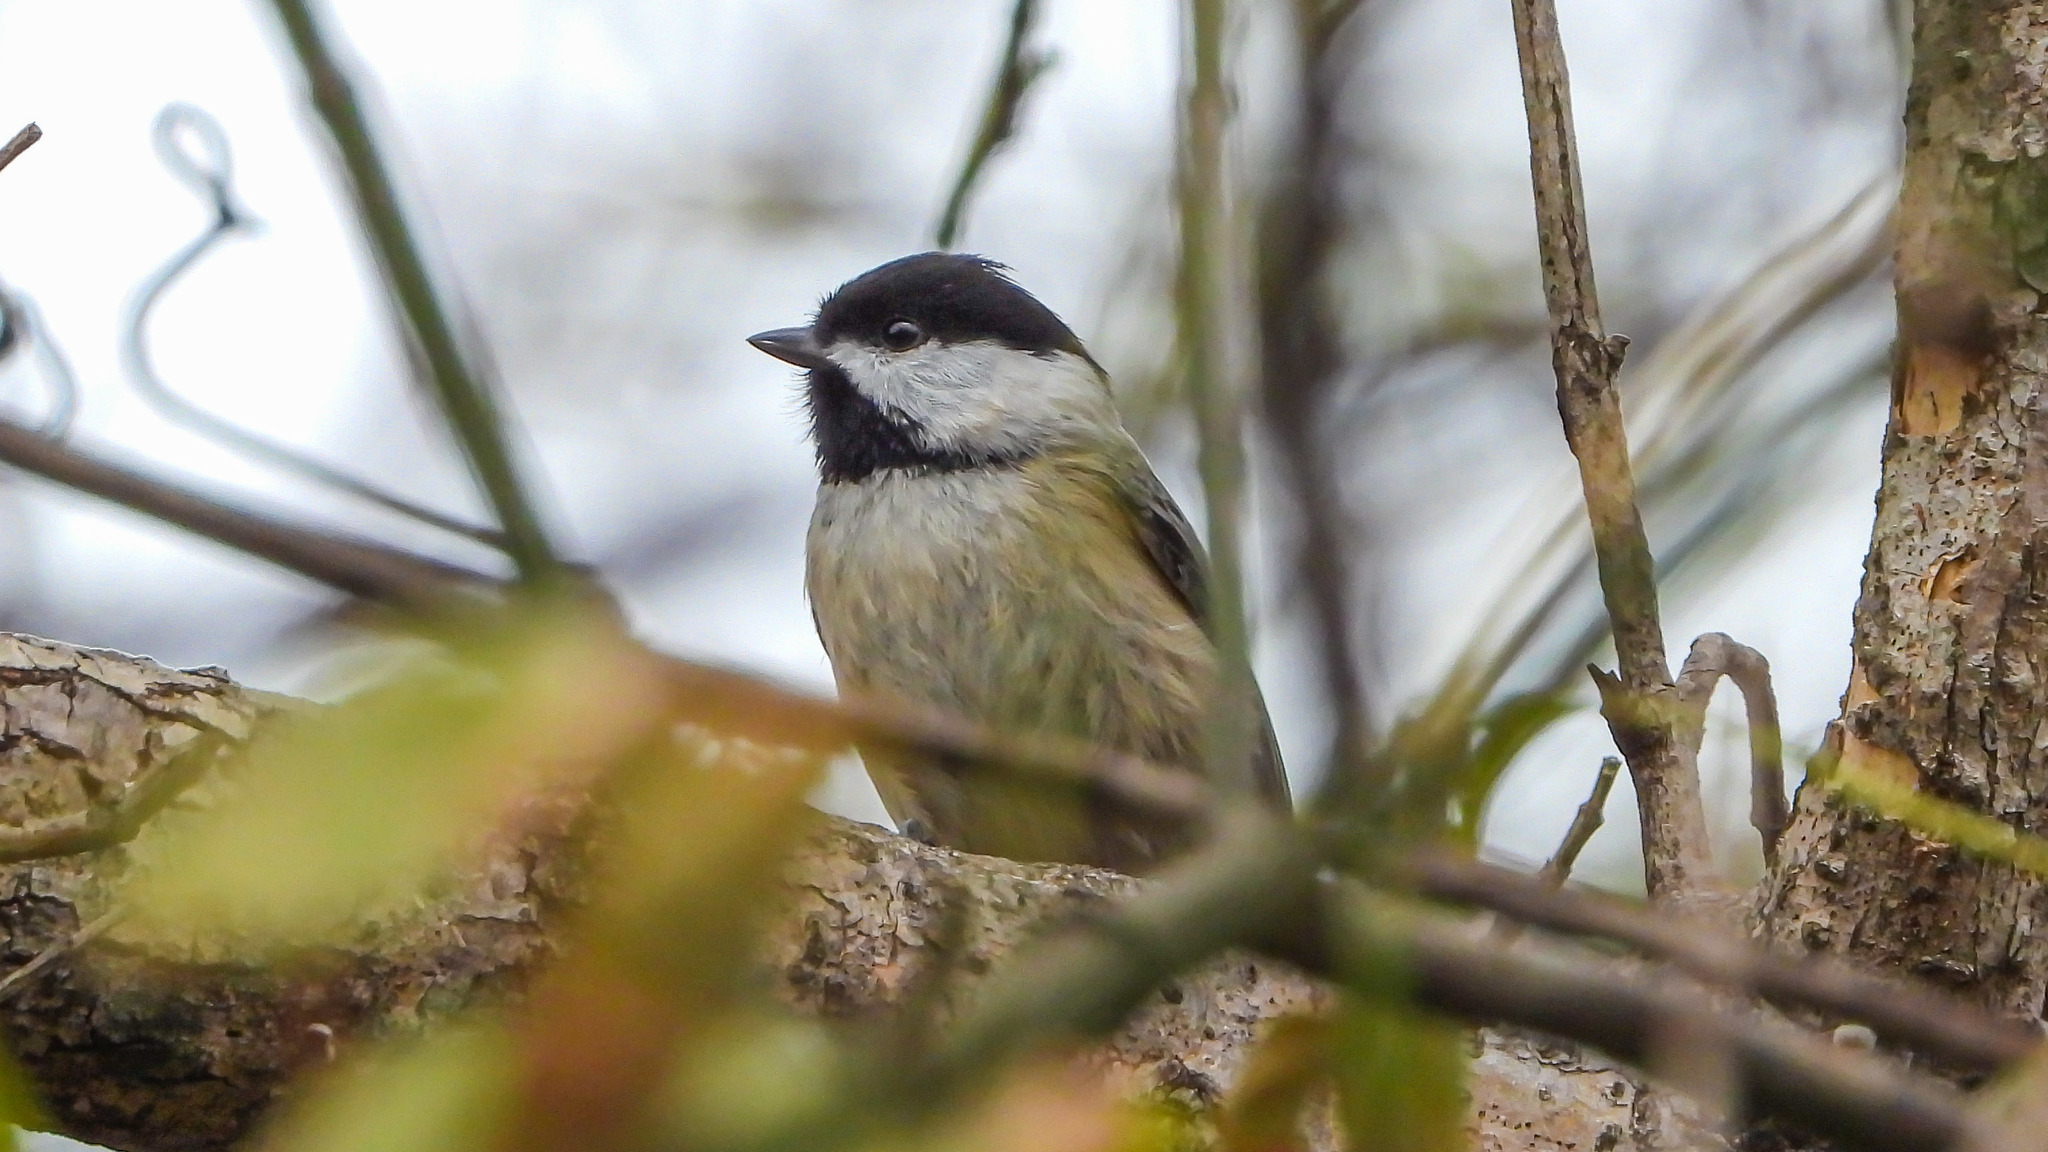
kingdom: Animalia
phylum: Chordata
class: Aves
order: Passeriformes
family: Paridae
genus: Poecile
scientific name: Poecile carolinensis
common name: Carolina chickadee
